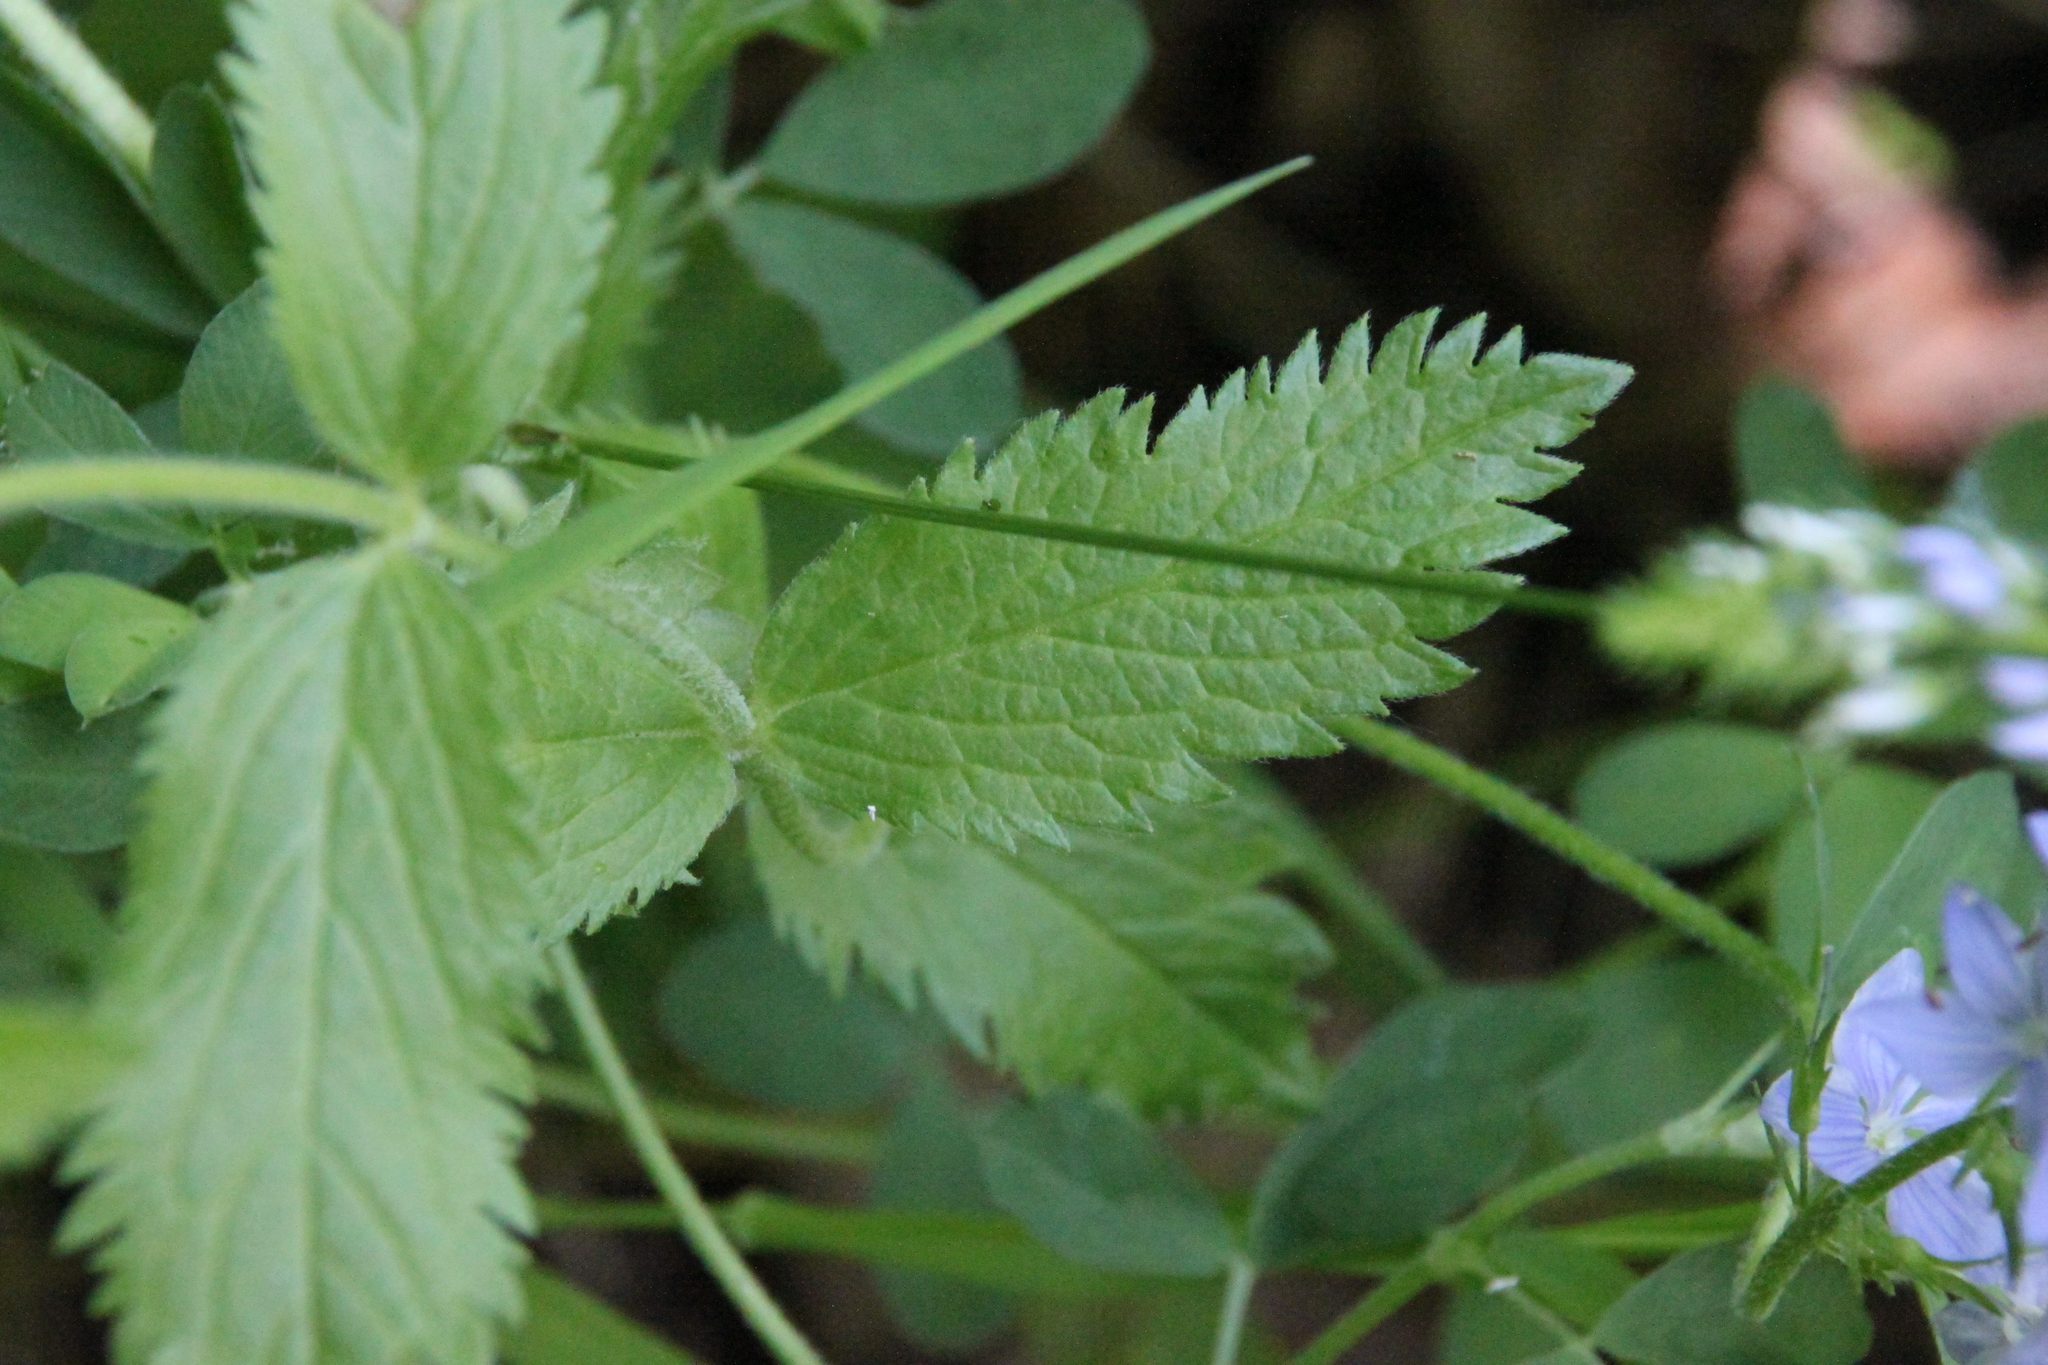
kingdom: Plantae
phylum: Tracheophyta
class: Magnoliopsida
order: Lamiales
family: Plantaginaceae
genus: Veronica
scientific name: Veronica teucrium
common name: Large speedwell
